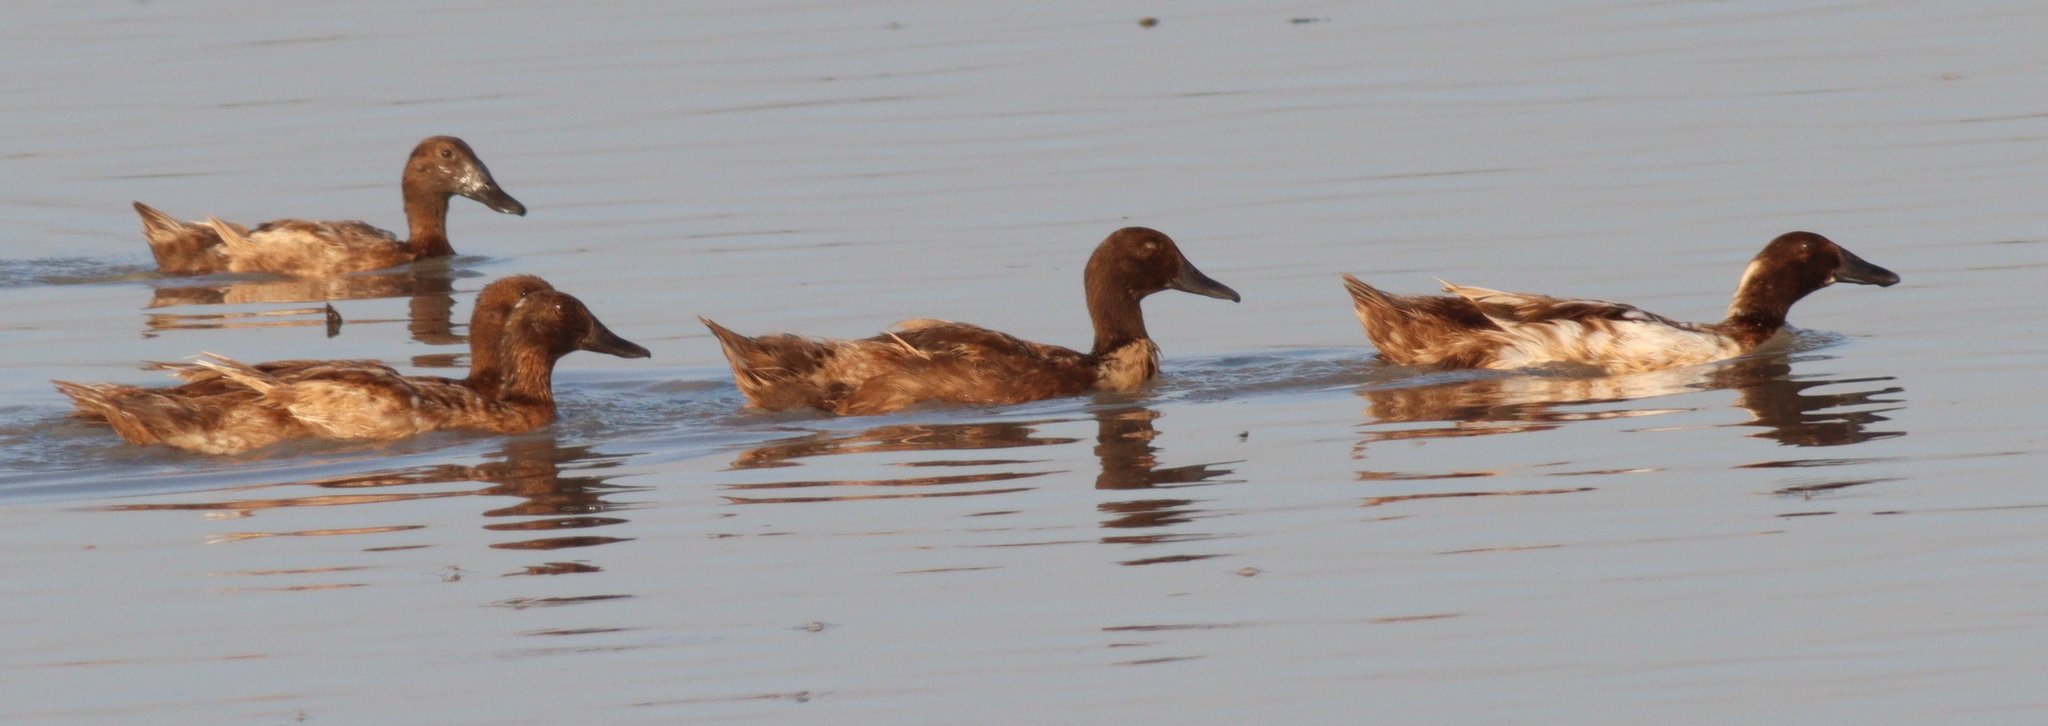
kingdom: Animalia
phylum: Chordata
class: Aves
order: Anseriformes
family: Anatidae
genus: Anas
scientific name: Anas platyrhynchos
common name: Mallard
